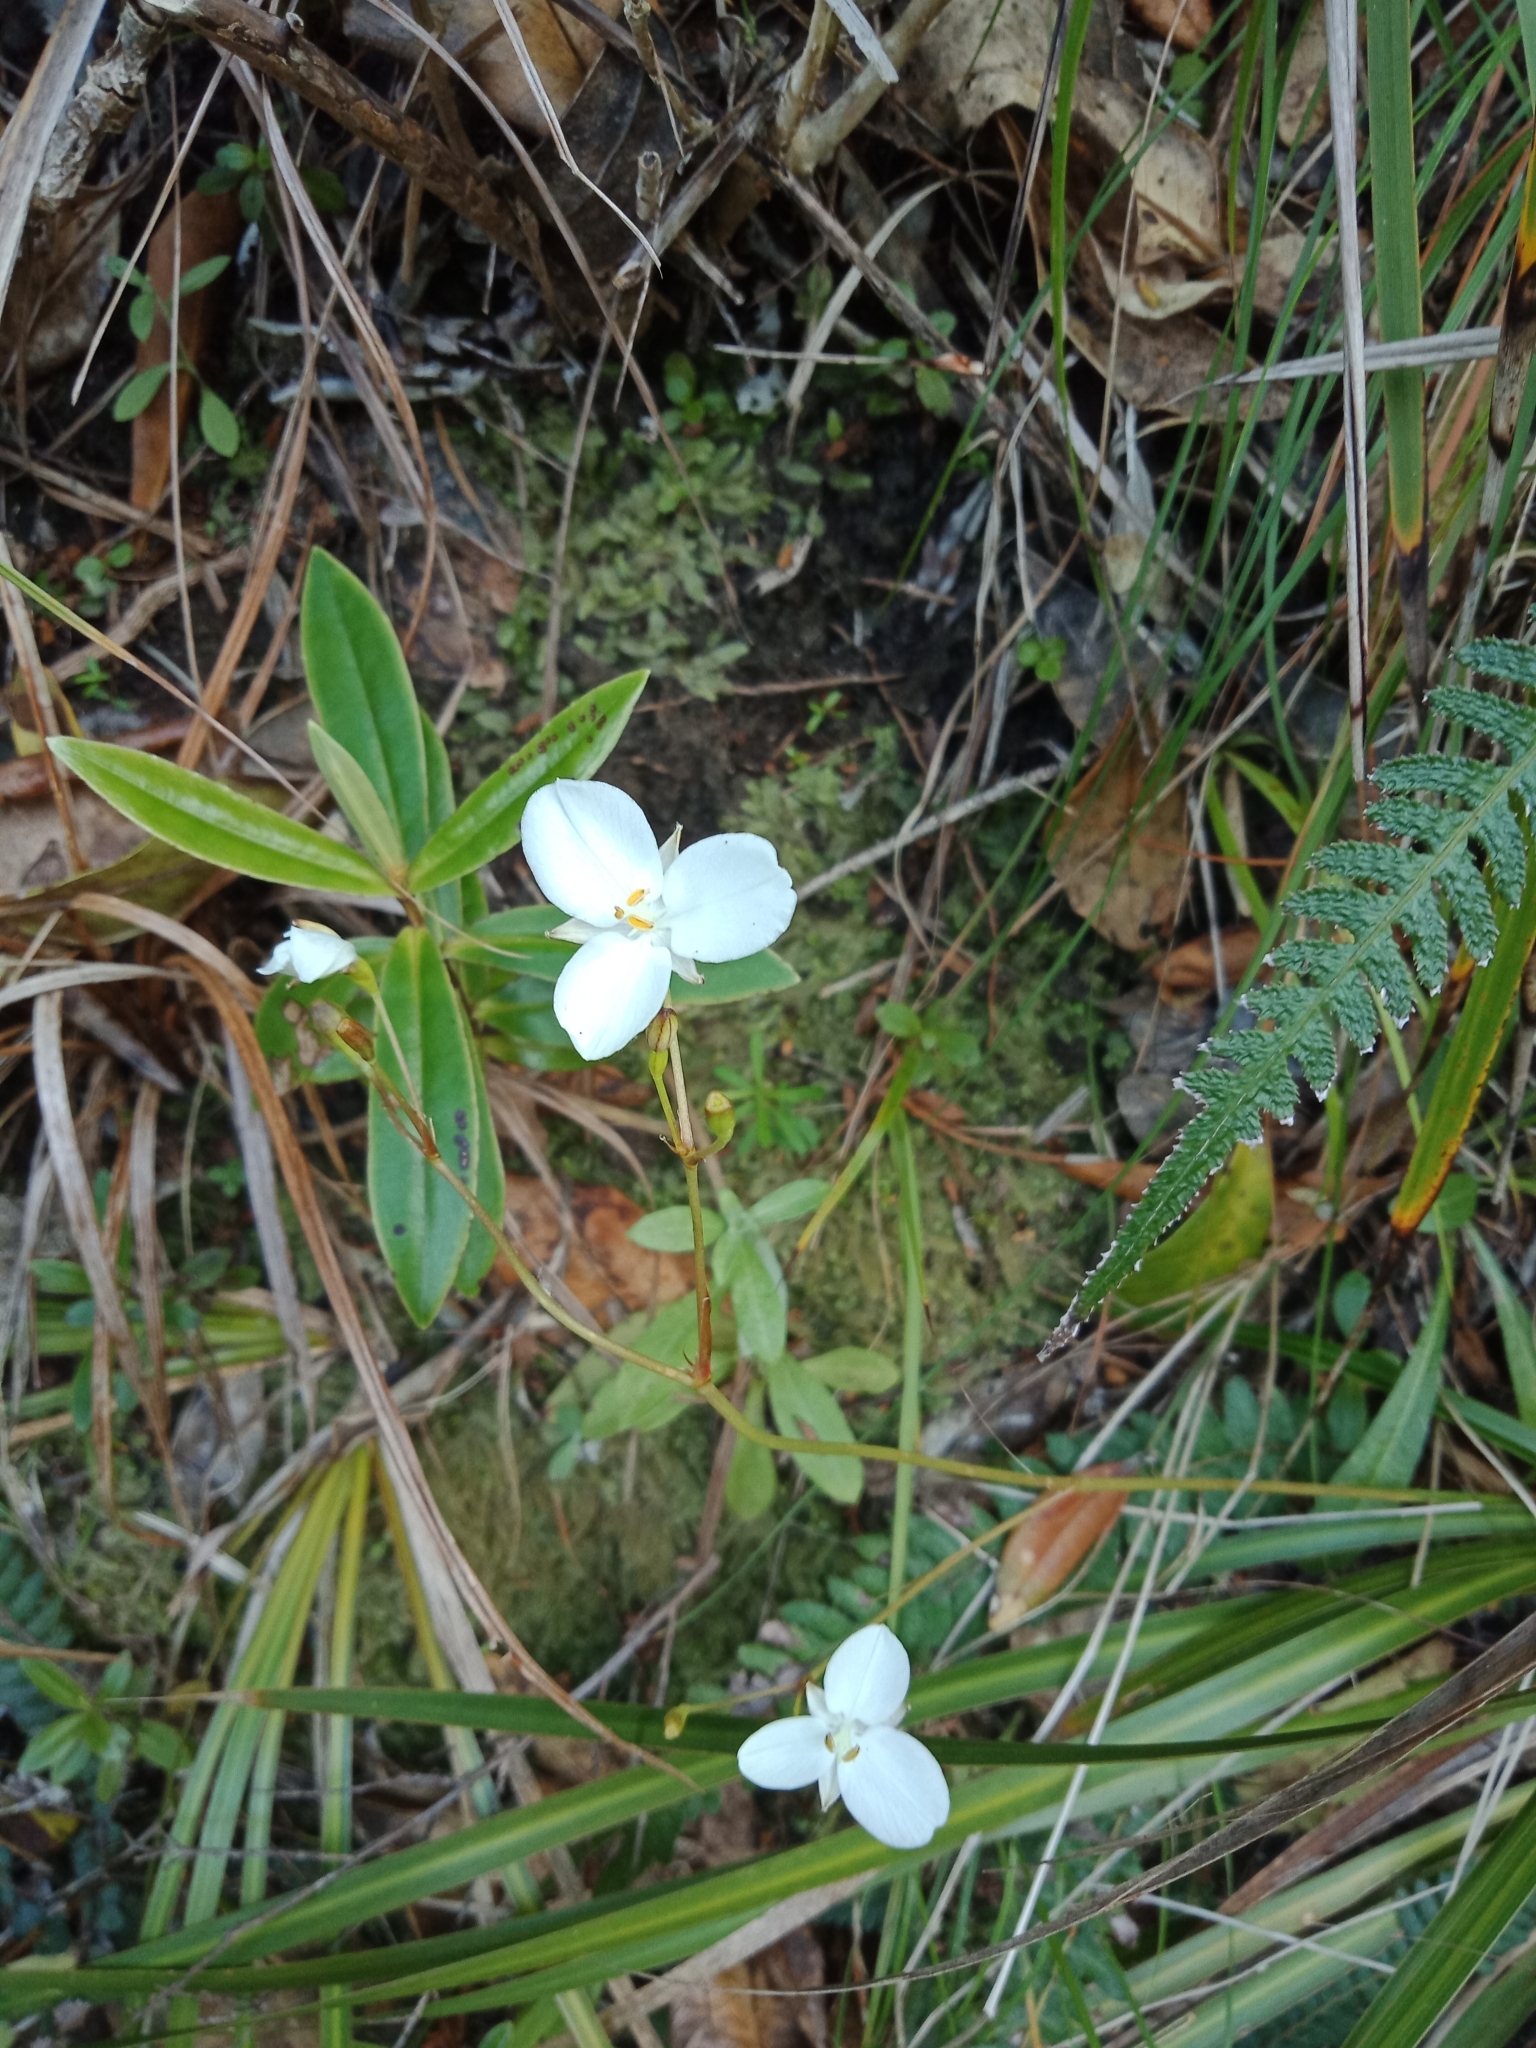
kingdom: Plantae
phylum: Tracheophyta
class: Liliopsida
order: Asparagales
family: Iridaceae
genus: Libertia
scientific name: Libertia grandiflora
